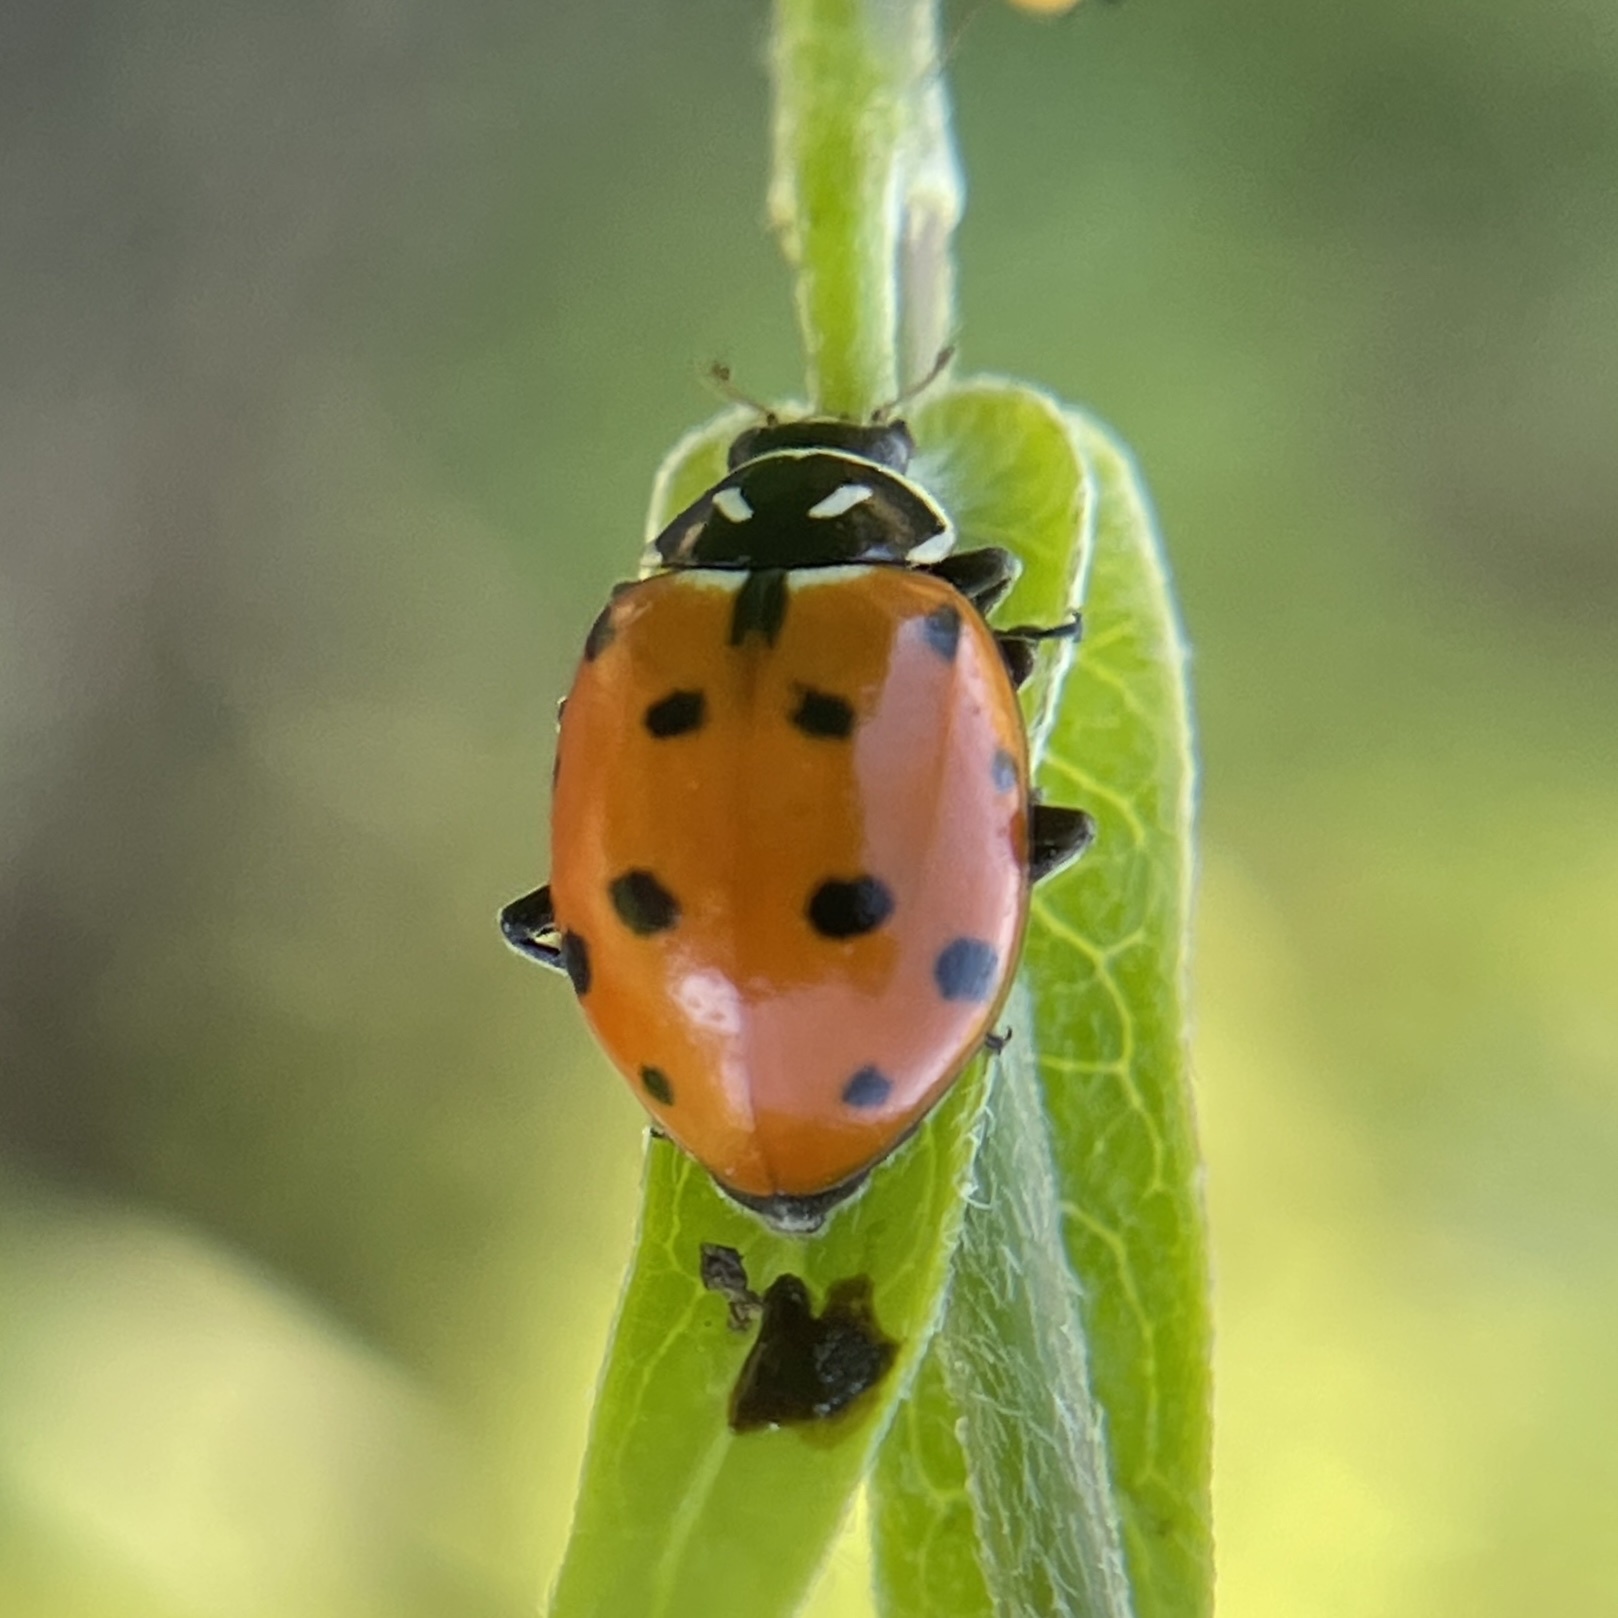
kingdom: Animalia
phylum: Arthropoda
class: Insecta
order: Coleoptera
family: Coccinellidae
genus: Hippodamia
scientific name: Hippodamia convergens
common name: Convergent lady beetle
